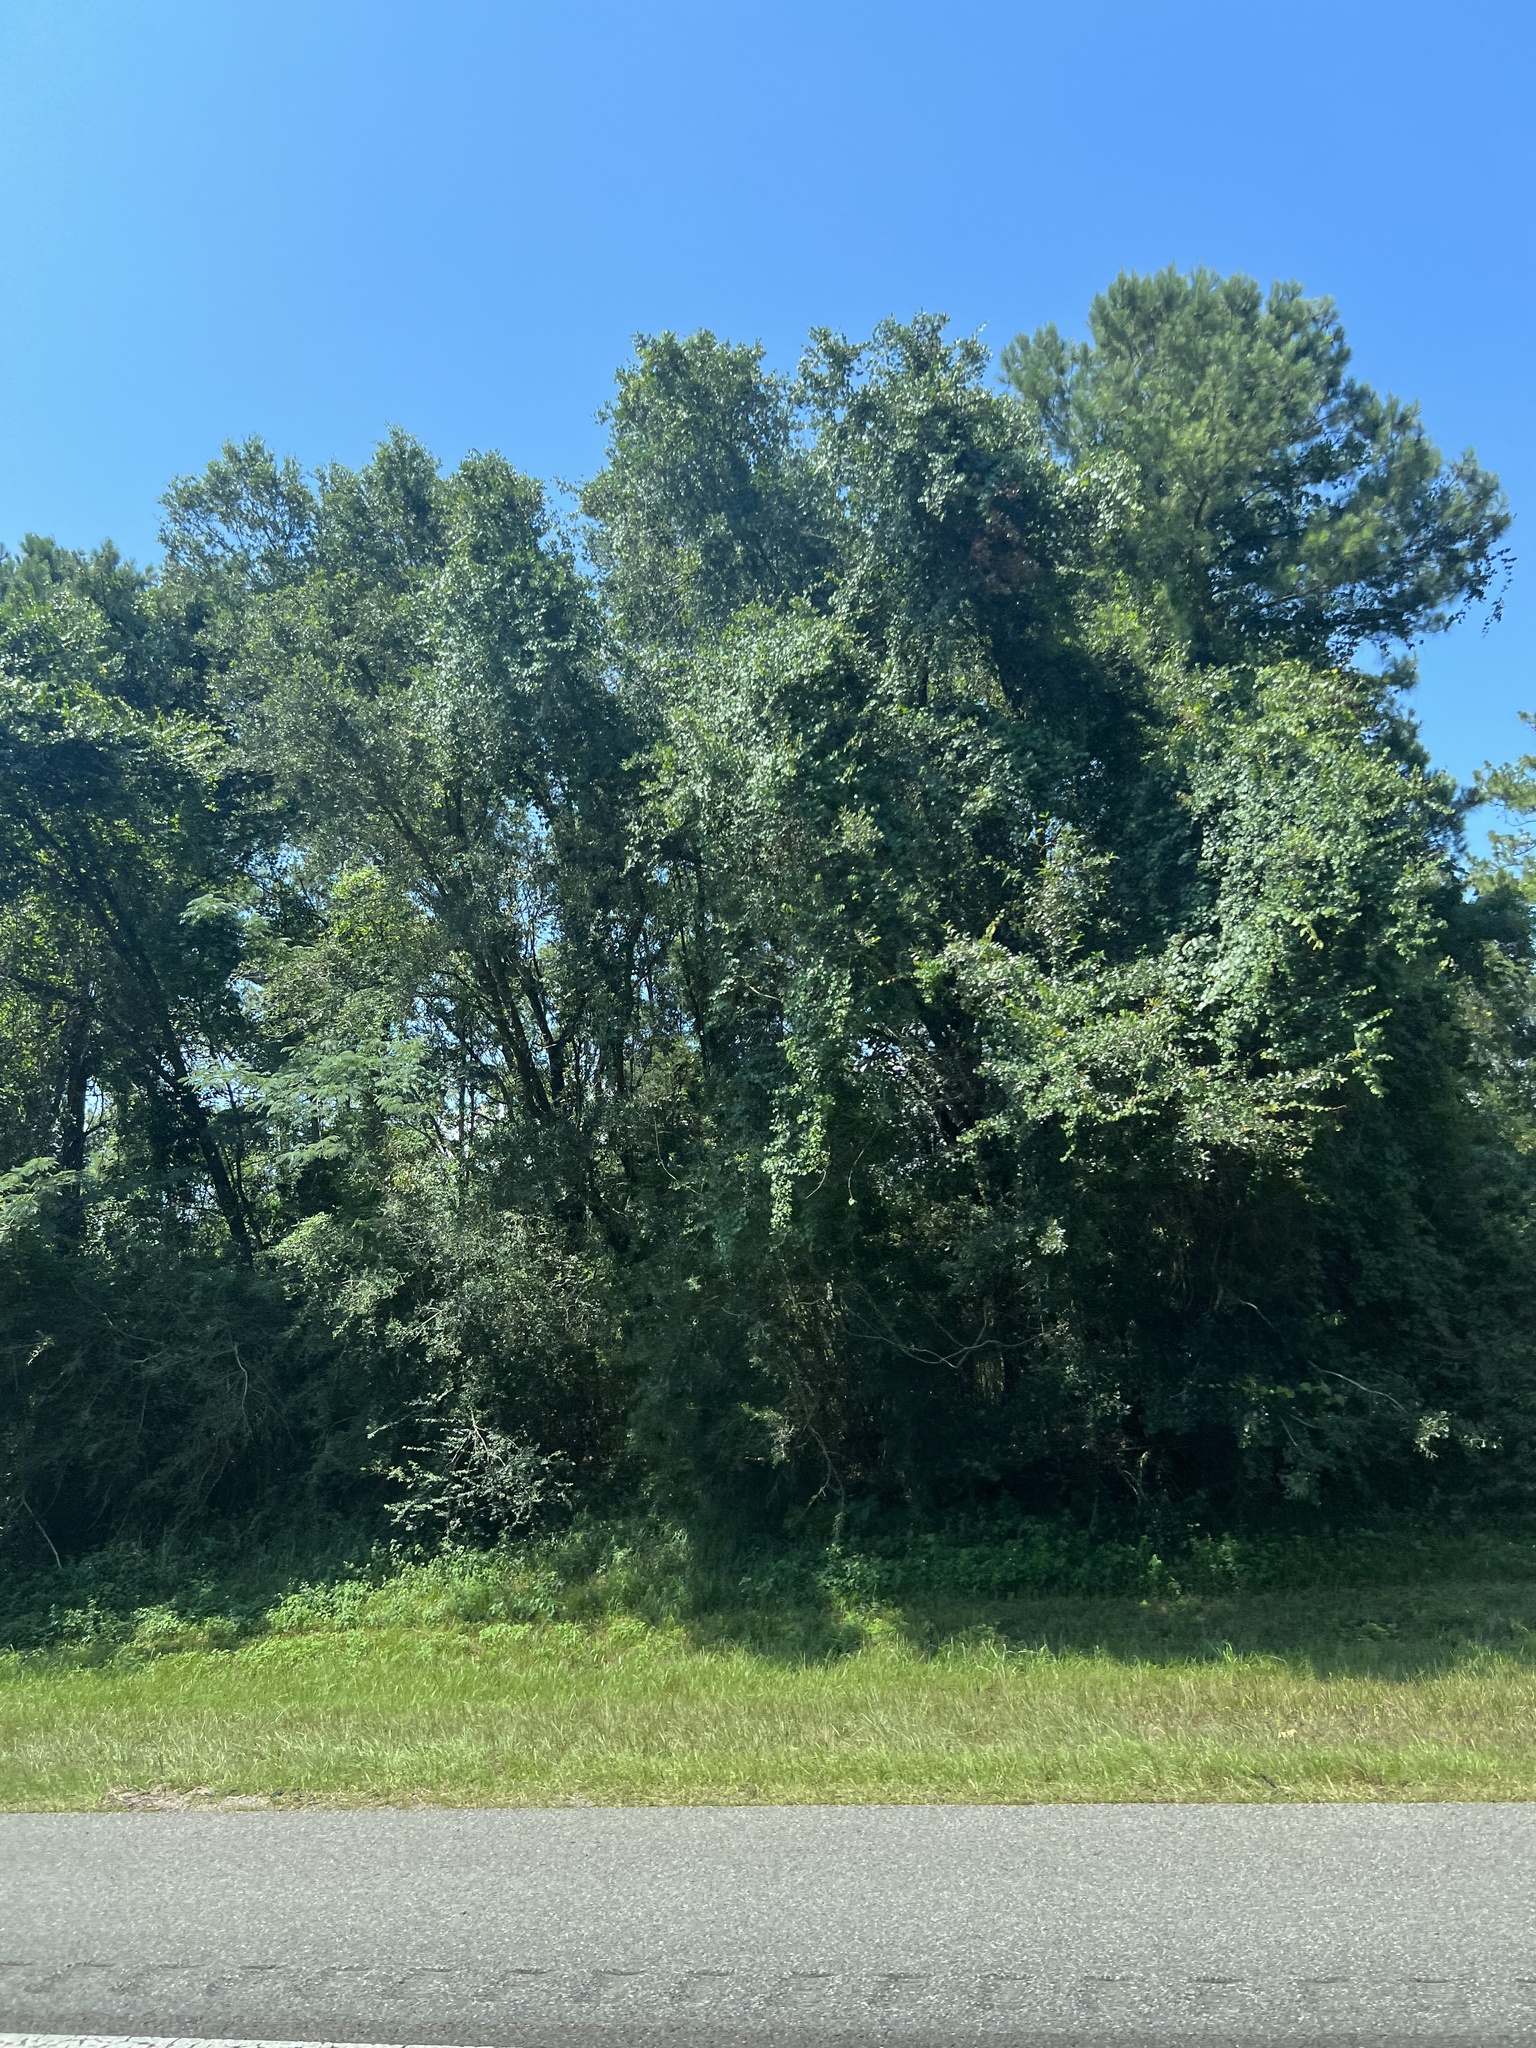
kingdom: Plantae
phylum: Tracheophyta
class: Magnoliopsida
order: Proteales
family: Platanaceae
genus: Platanus
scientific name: Platanus occidentalis
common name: American sycamore
